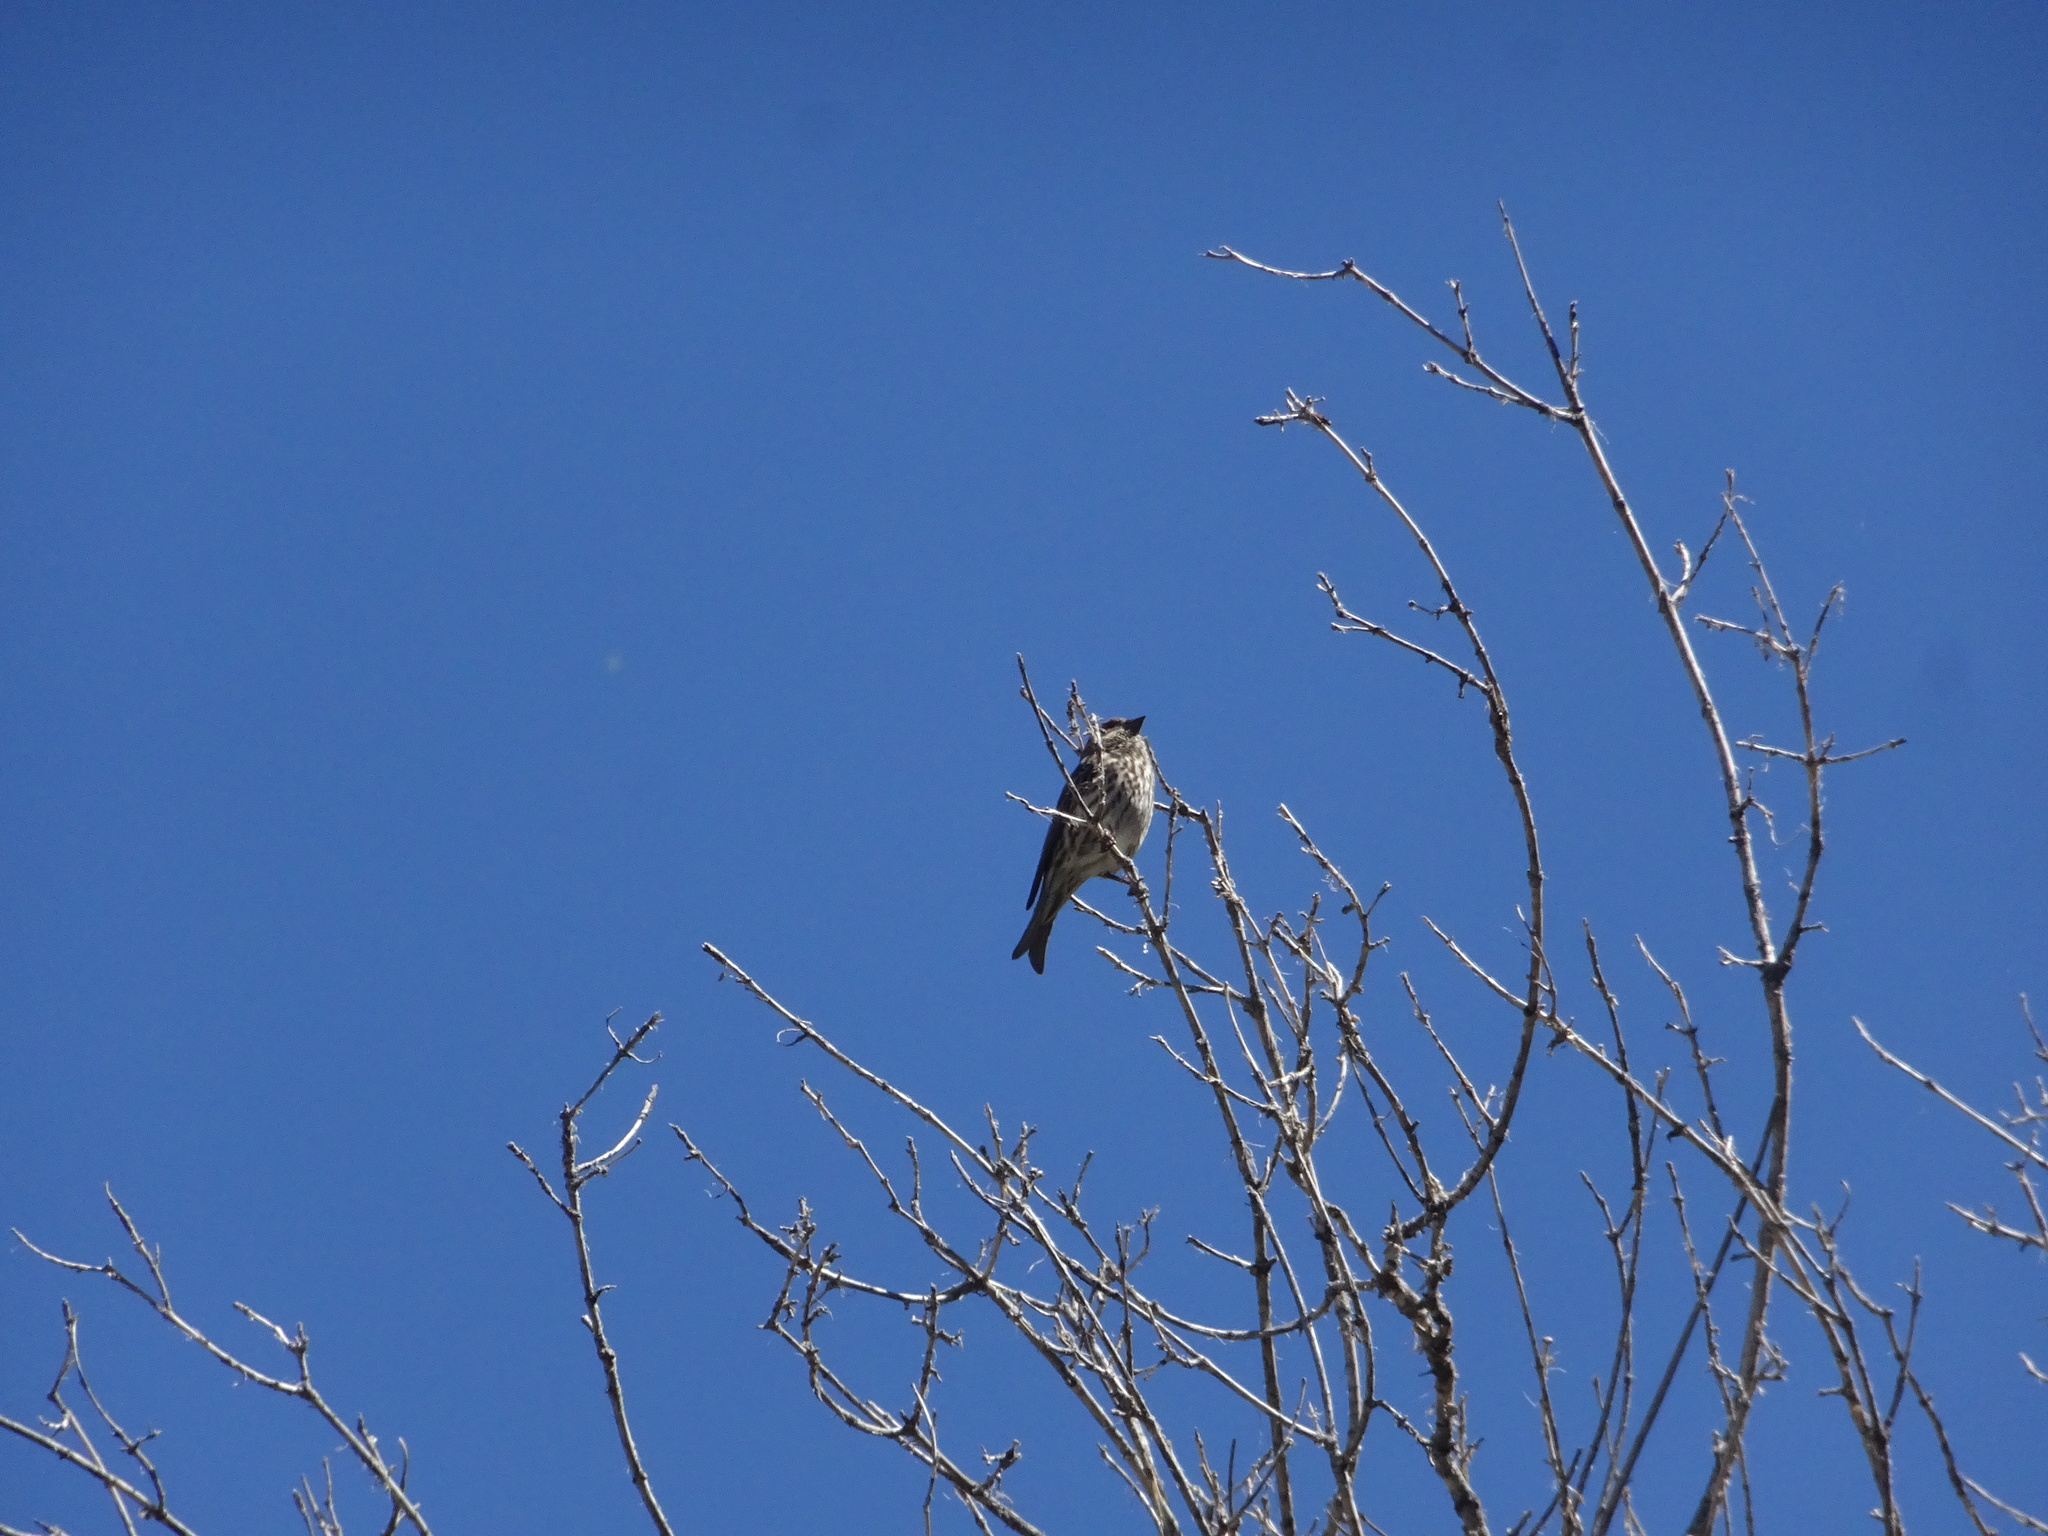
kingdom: Animalia
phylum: Chordata
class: Aves
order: Passeriformes
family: Fringillidae
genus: Haemorhous
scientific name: Haemorhous cassinii
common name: Cassin's finch
